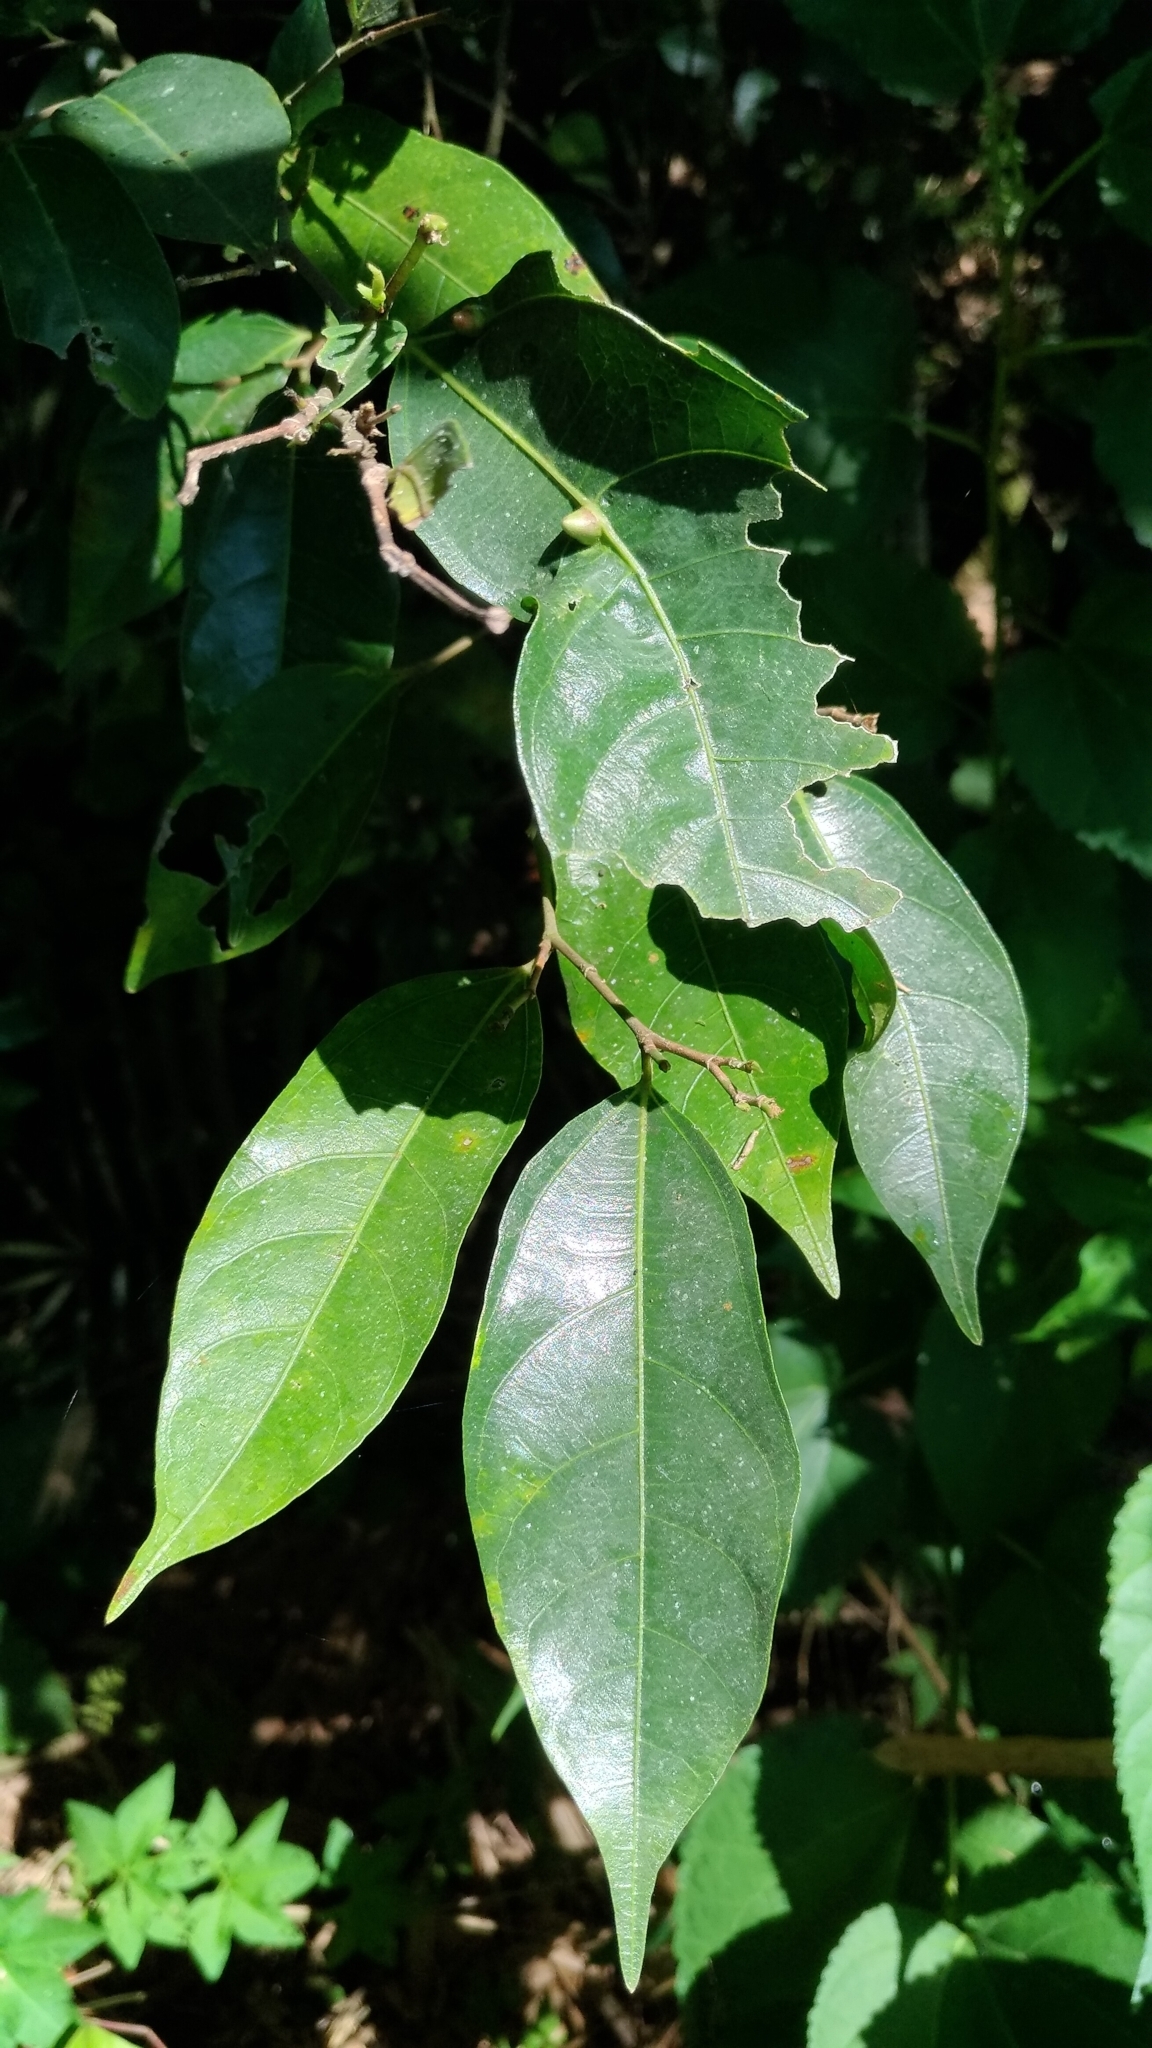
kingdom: Plantae
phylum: Tracheophyta
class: Magnoliopsida
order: Rosales
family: Moraceae
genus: Ficus
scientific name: Ficus ampelos
